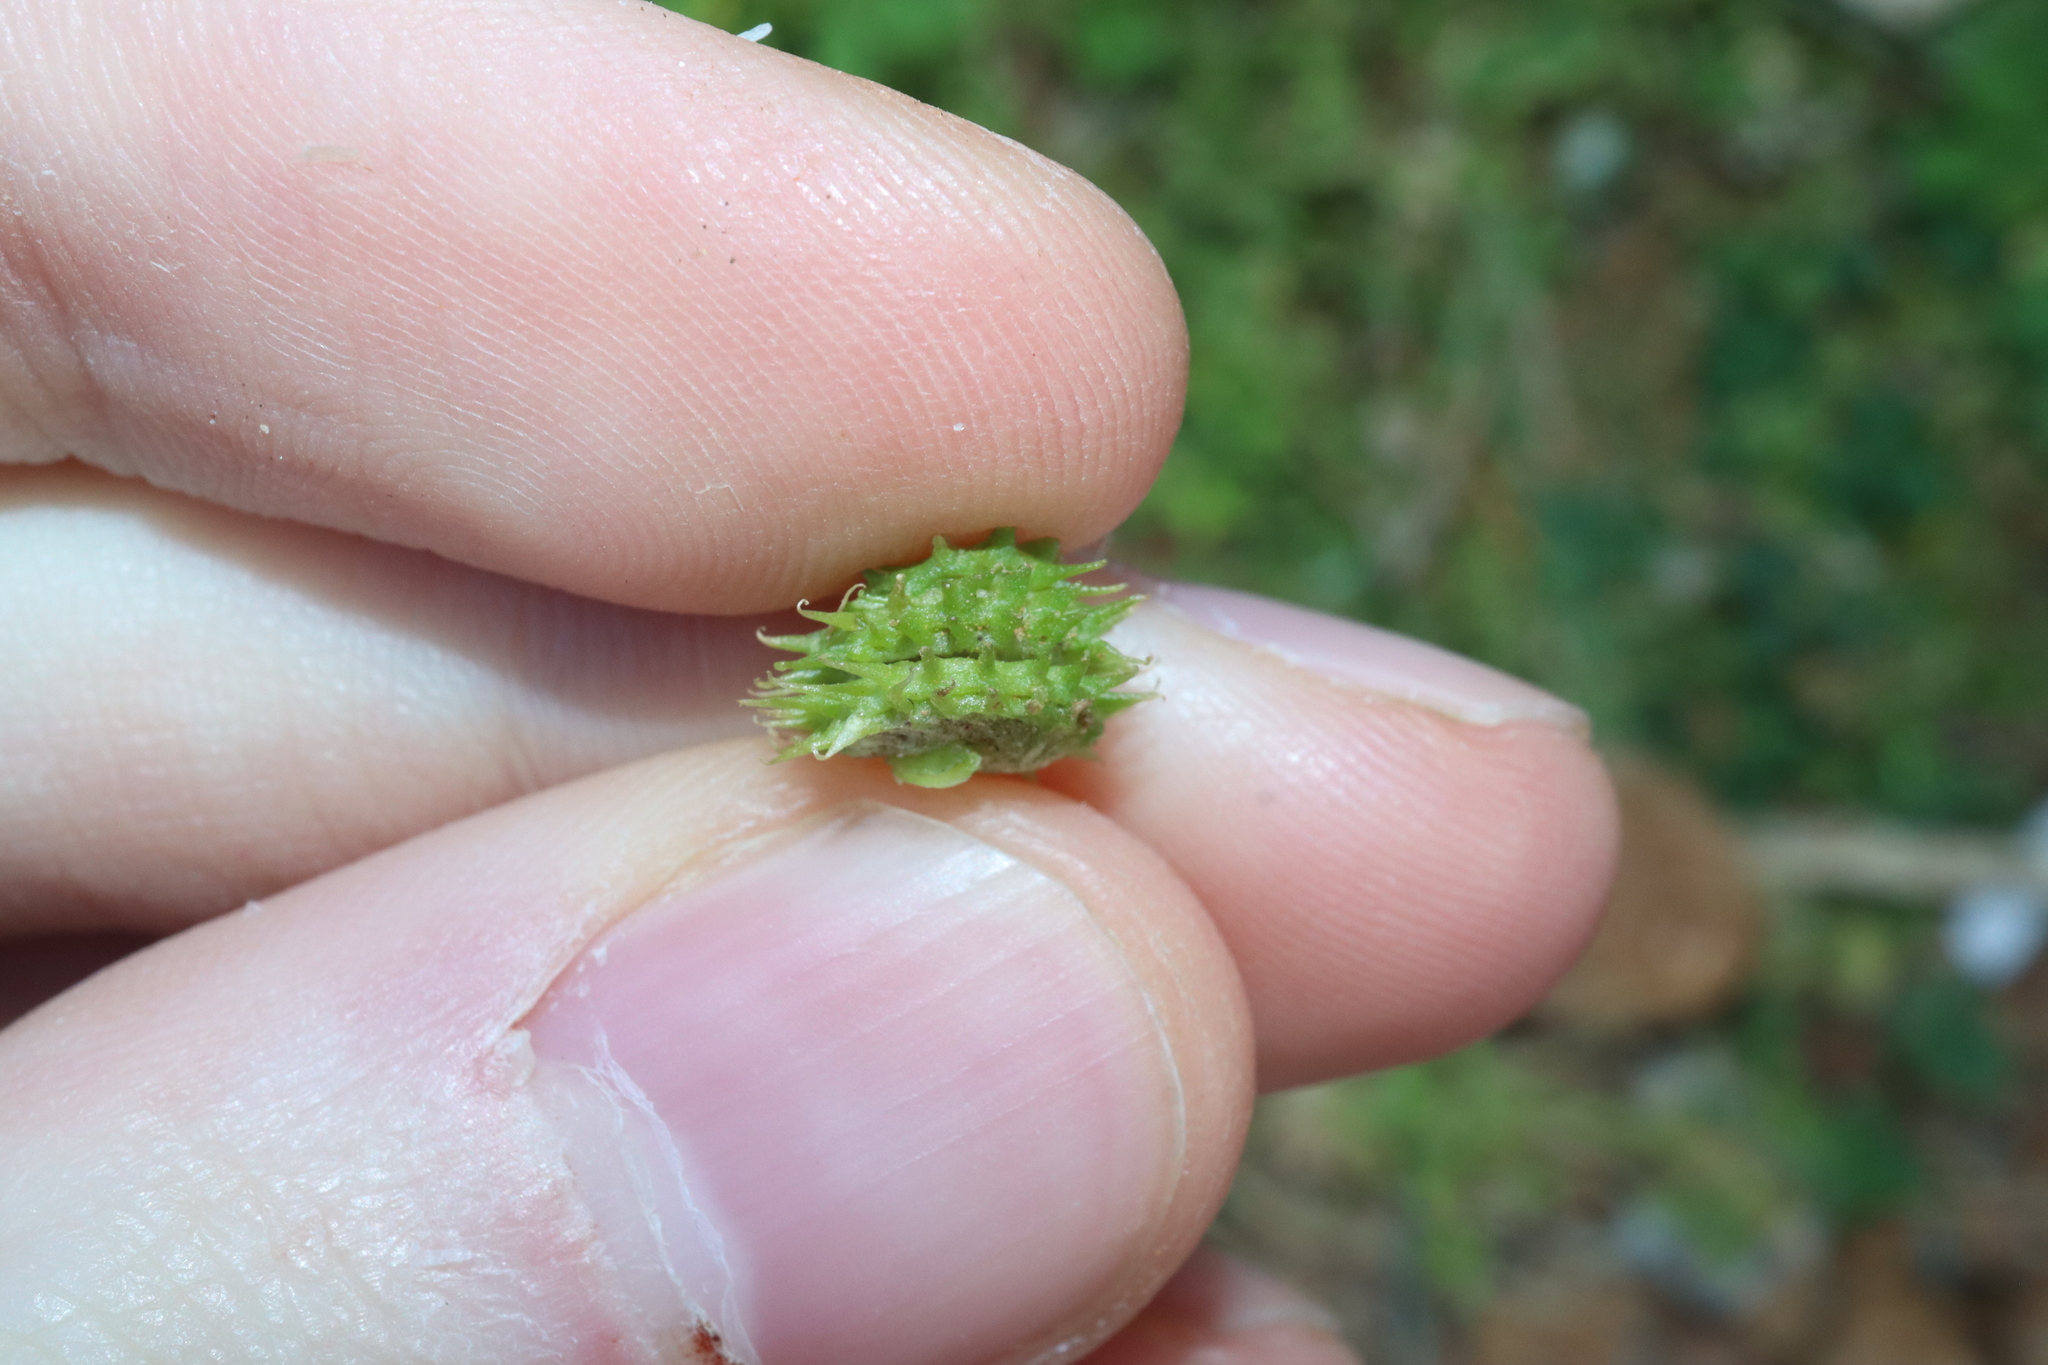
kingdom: Plantae
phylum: Tracheophyta
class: Magnoliopsida
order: Fabales
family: Fabaceae
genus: Medicago
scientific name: Medicago polymorpha
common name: Burclover
